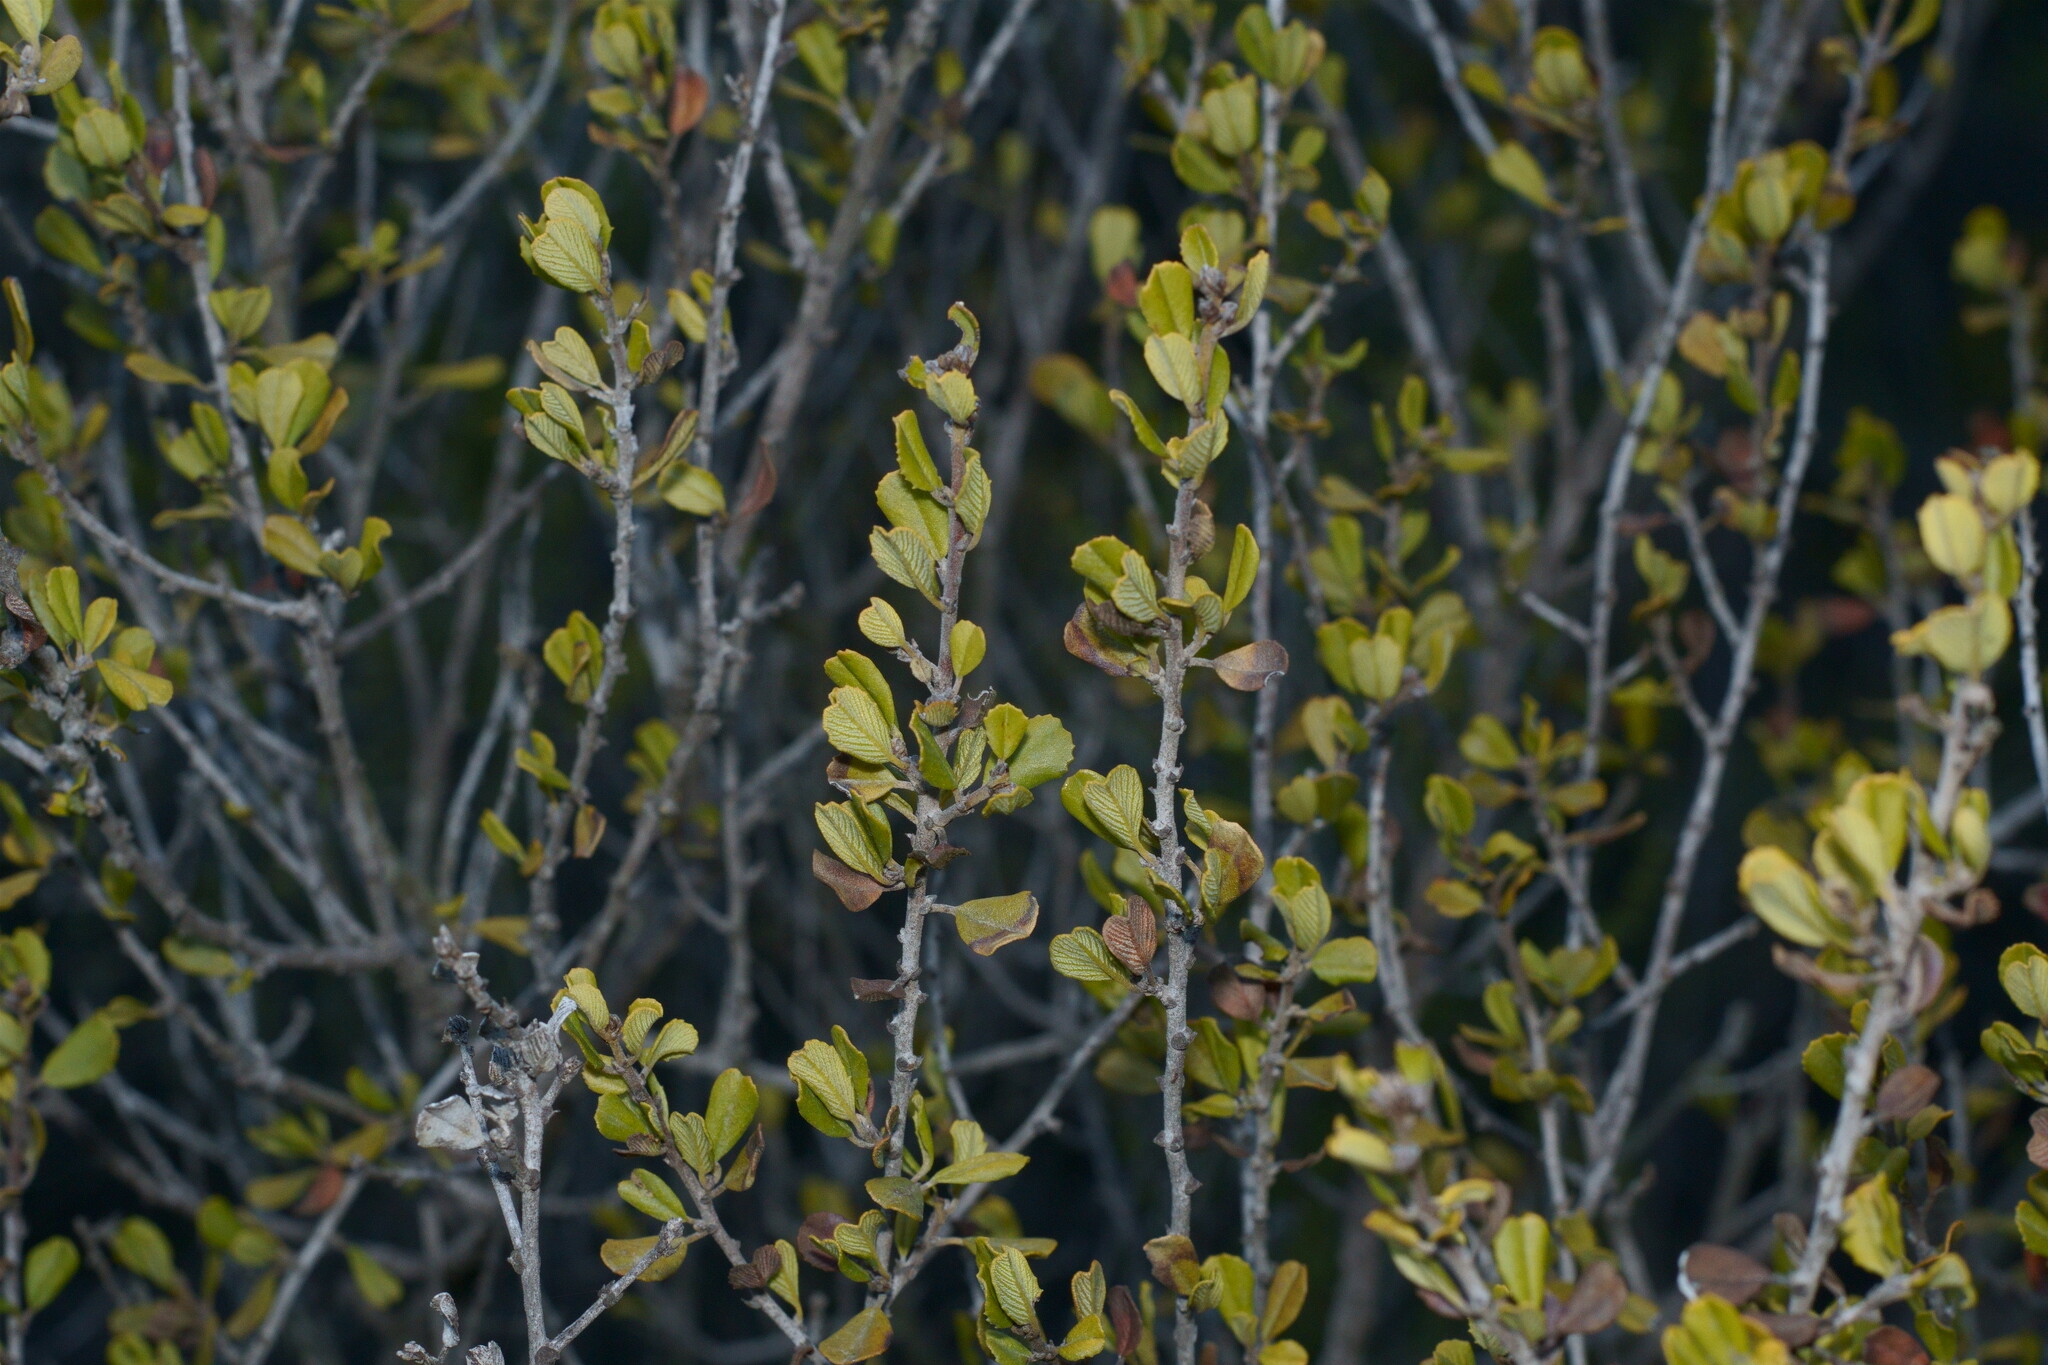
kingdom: Plantae
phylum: Tracheophyta
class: Magnoliopsida
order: Rosales
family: Rhamnaceae
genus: Ceanothus
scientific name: Ceanothus verrucosus
